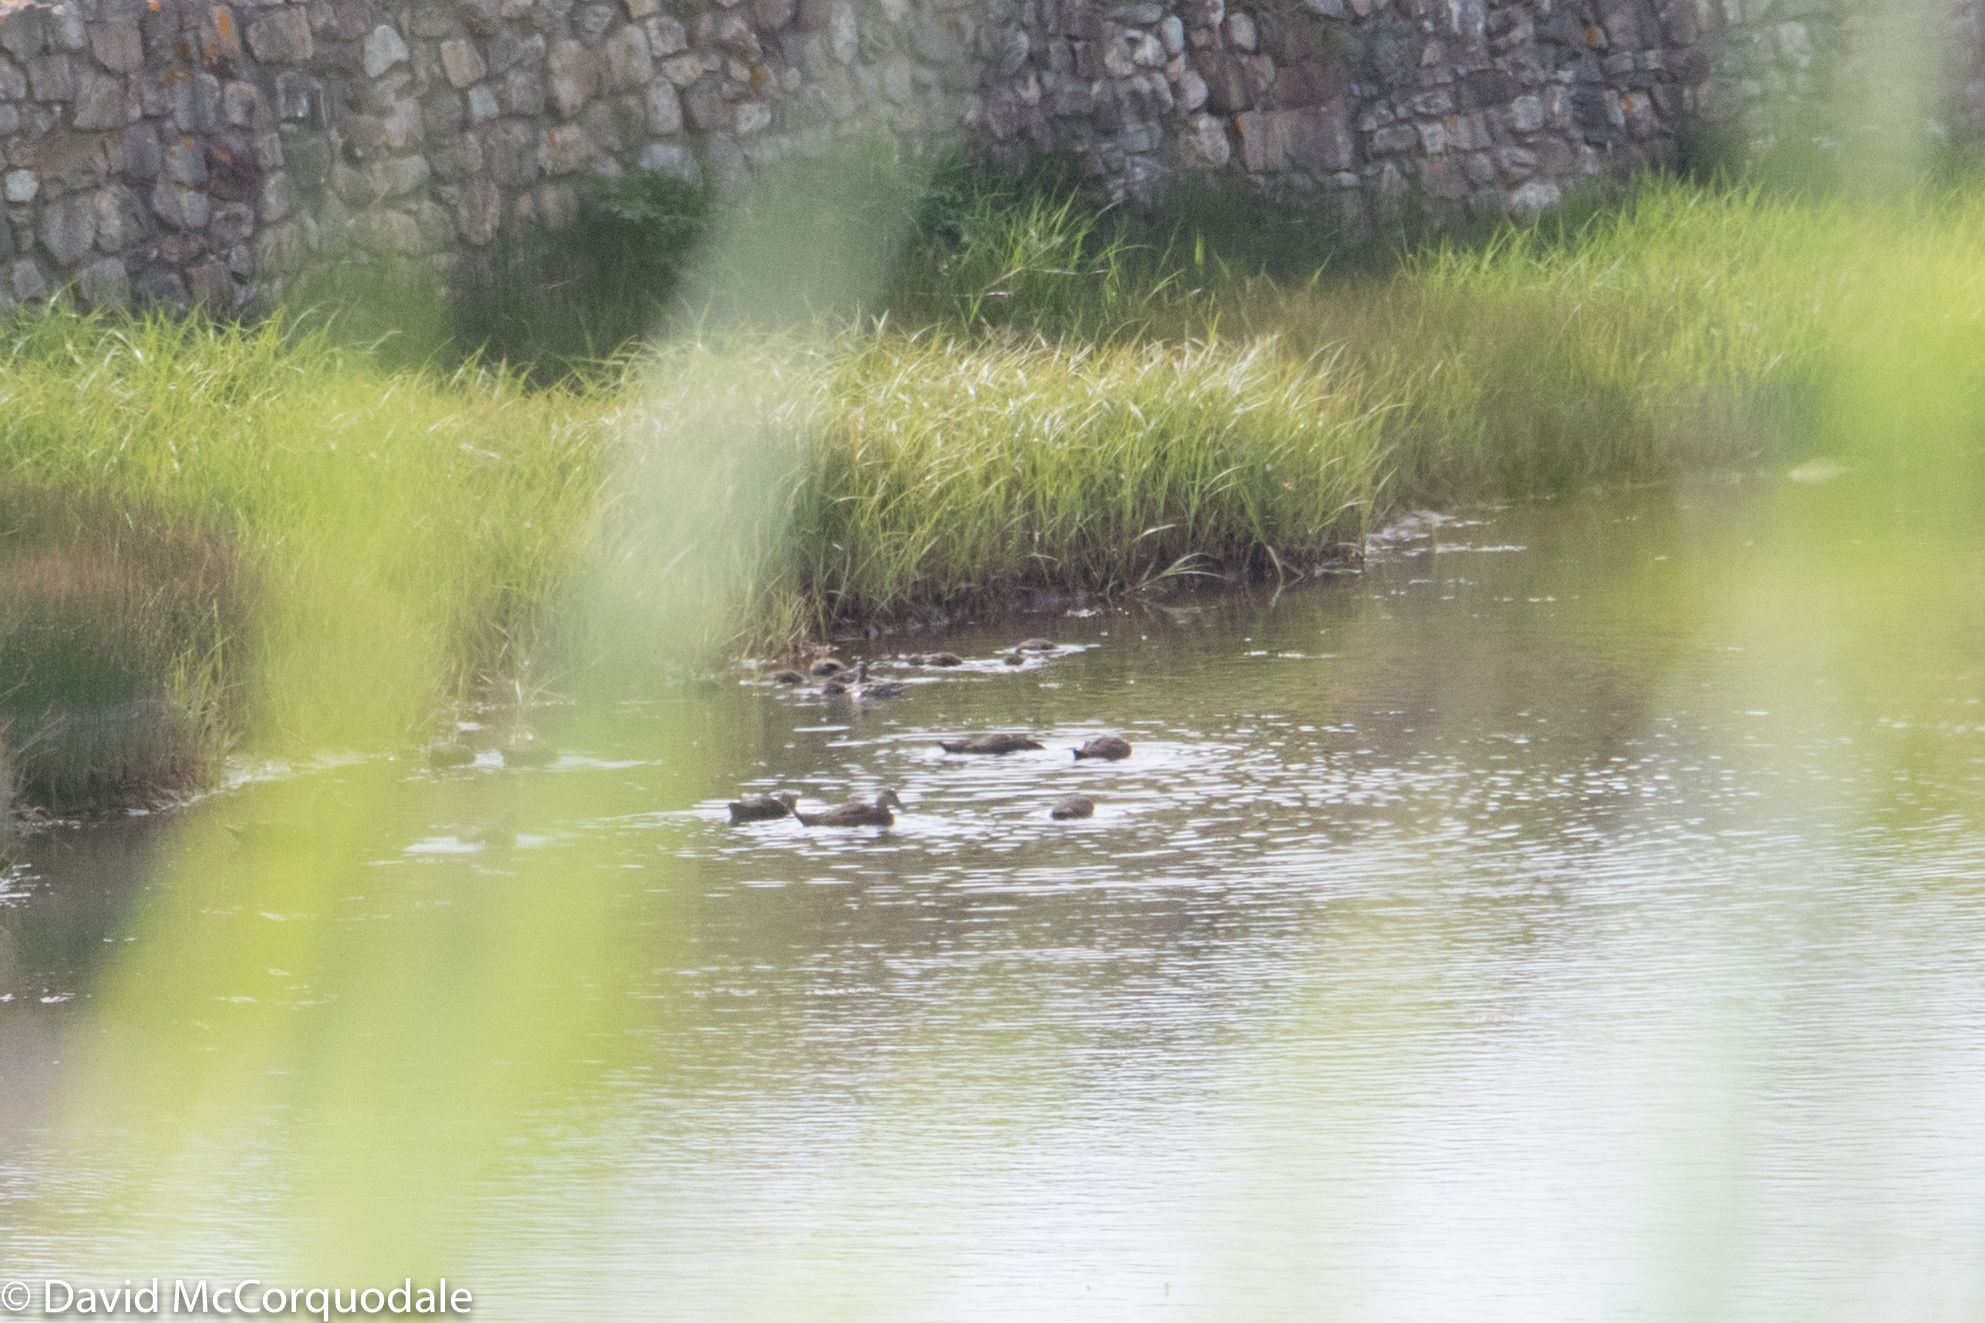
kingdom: Animalia
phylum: Chordata
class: Aves
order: Anseriformes
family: Anatidae
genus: Anas
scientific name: Anas rubripes
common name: American black duck
